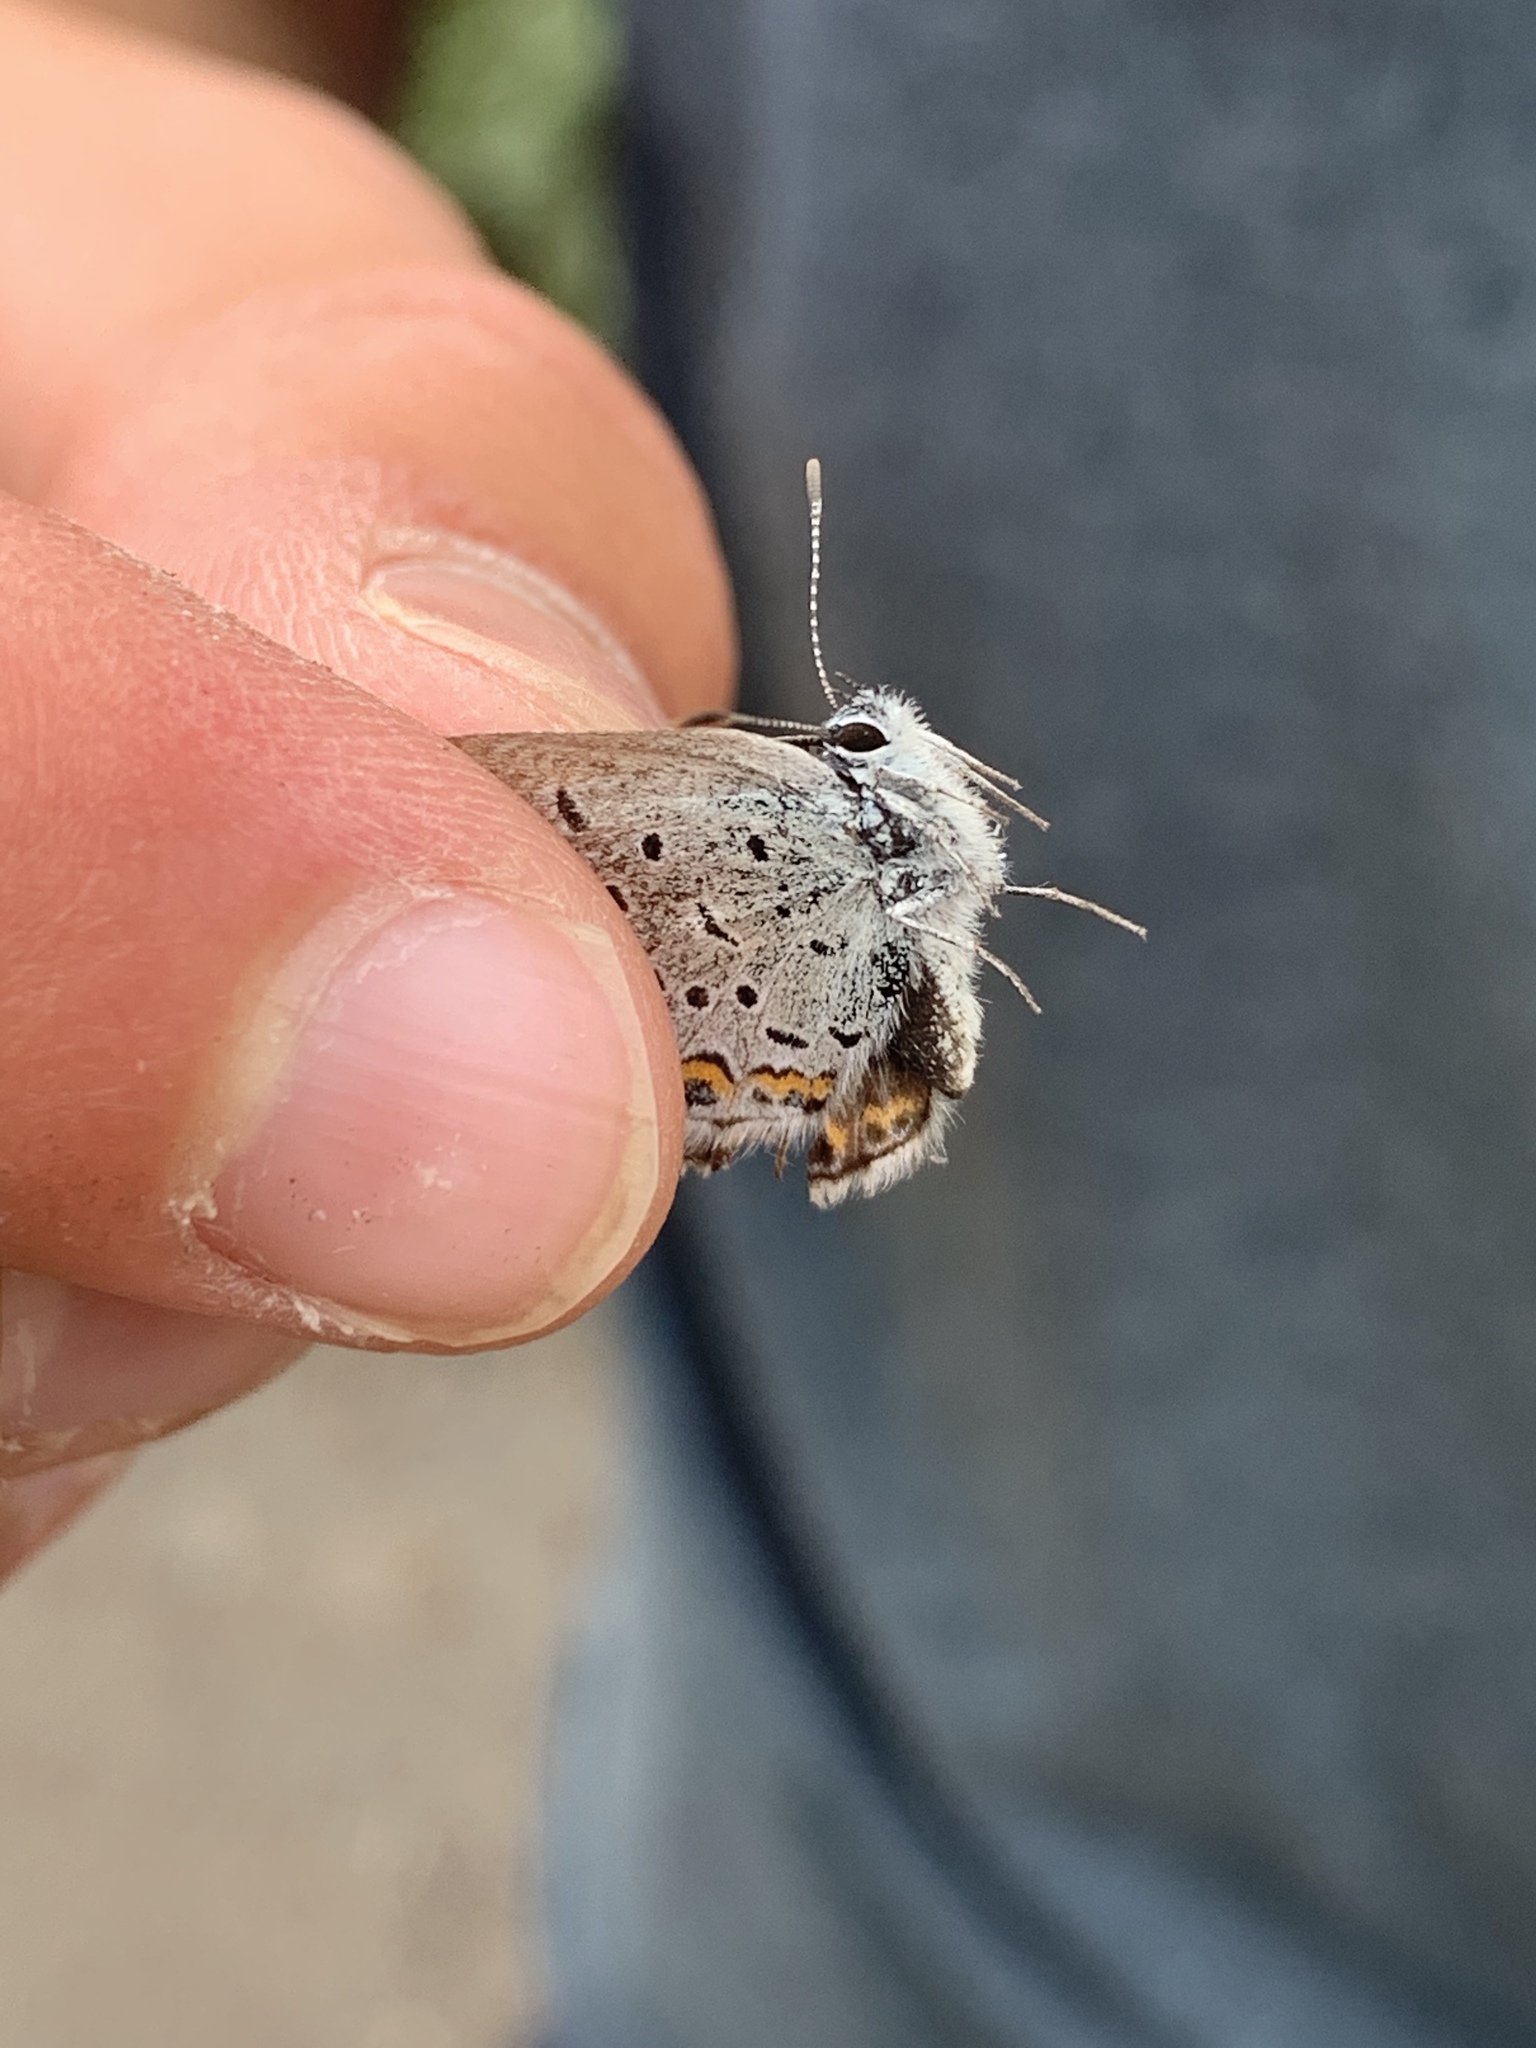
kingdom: Animalia
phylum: Arthropoda
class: Insecta
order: Lepidoptera
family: Lycaenidae
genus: Lycaeides
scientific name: Lycaeides idas
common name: Northern blue
